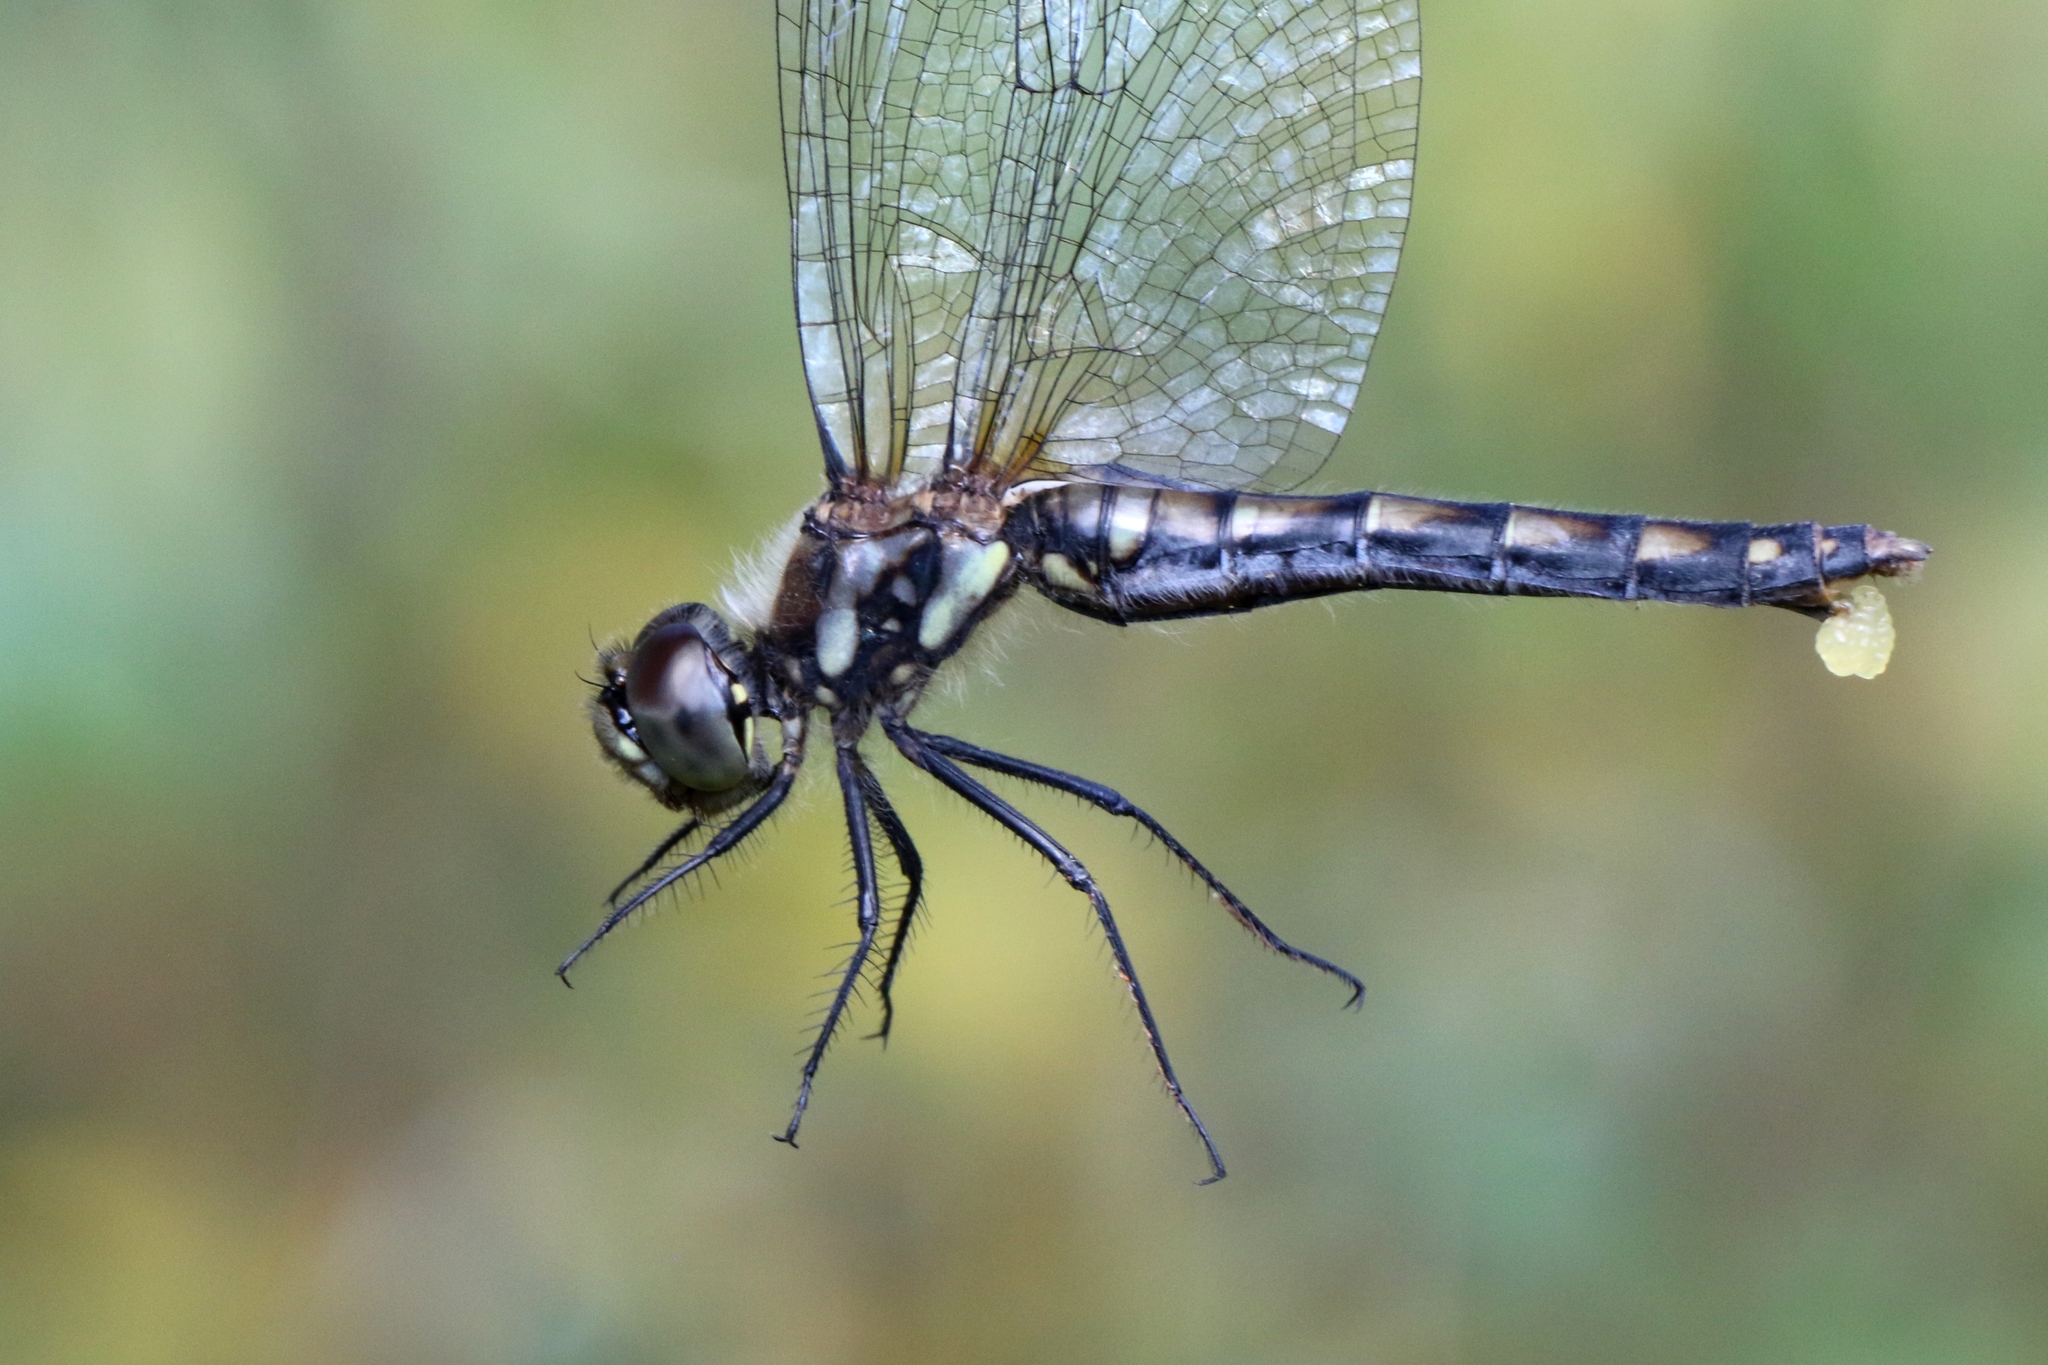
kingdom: Animalia
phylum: Arthropoda
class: Insecta
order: Odonata
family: Libellulidae
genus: Sympetrum
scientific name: Sympetrum danae
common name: Black darter
